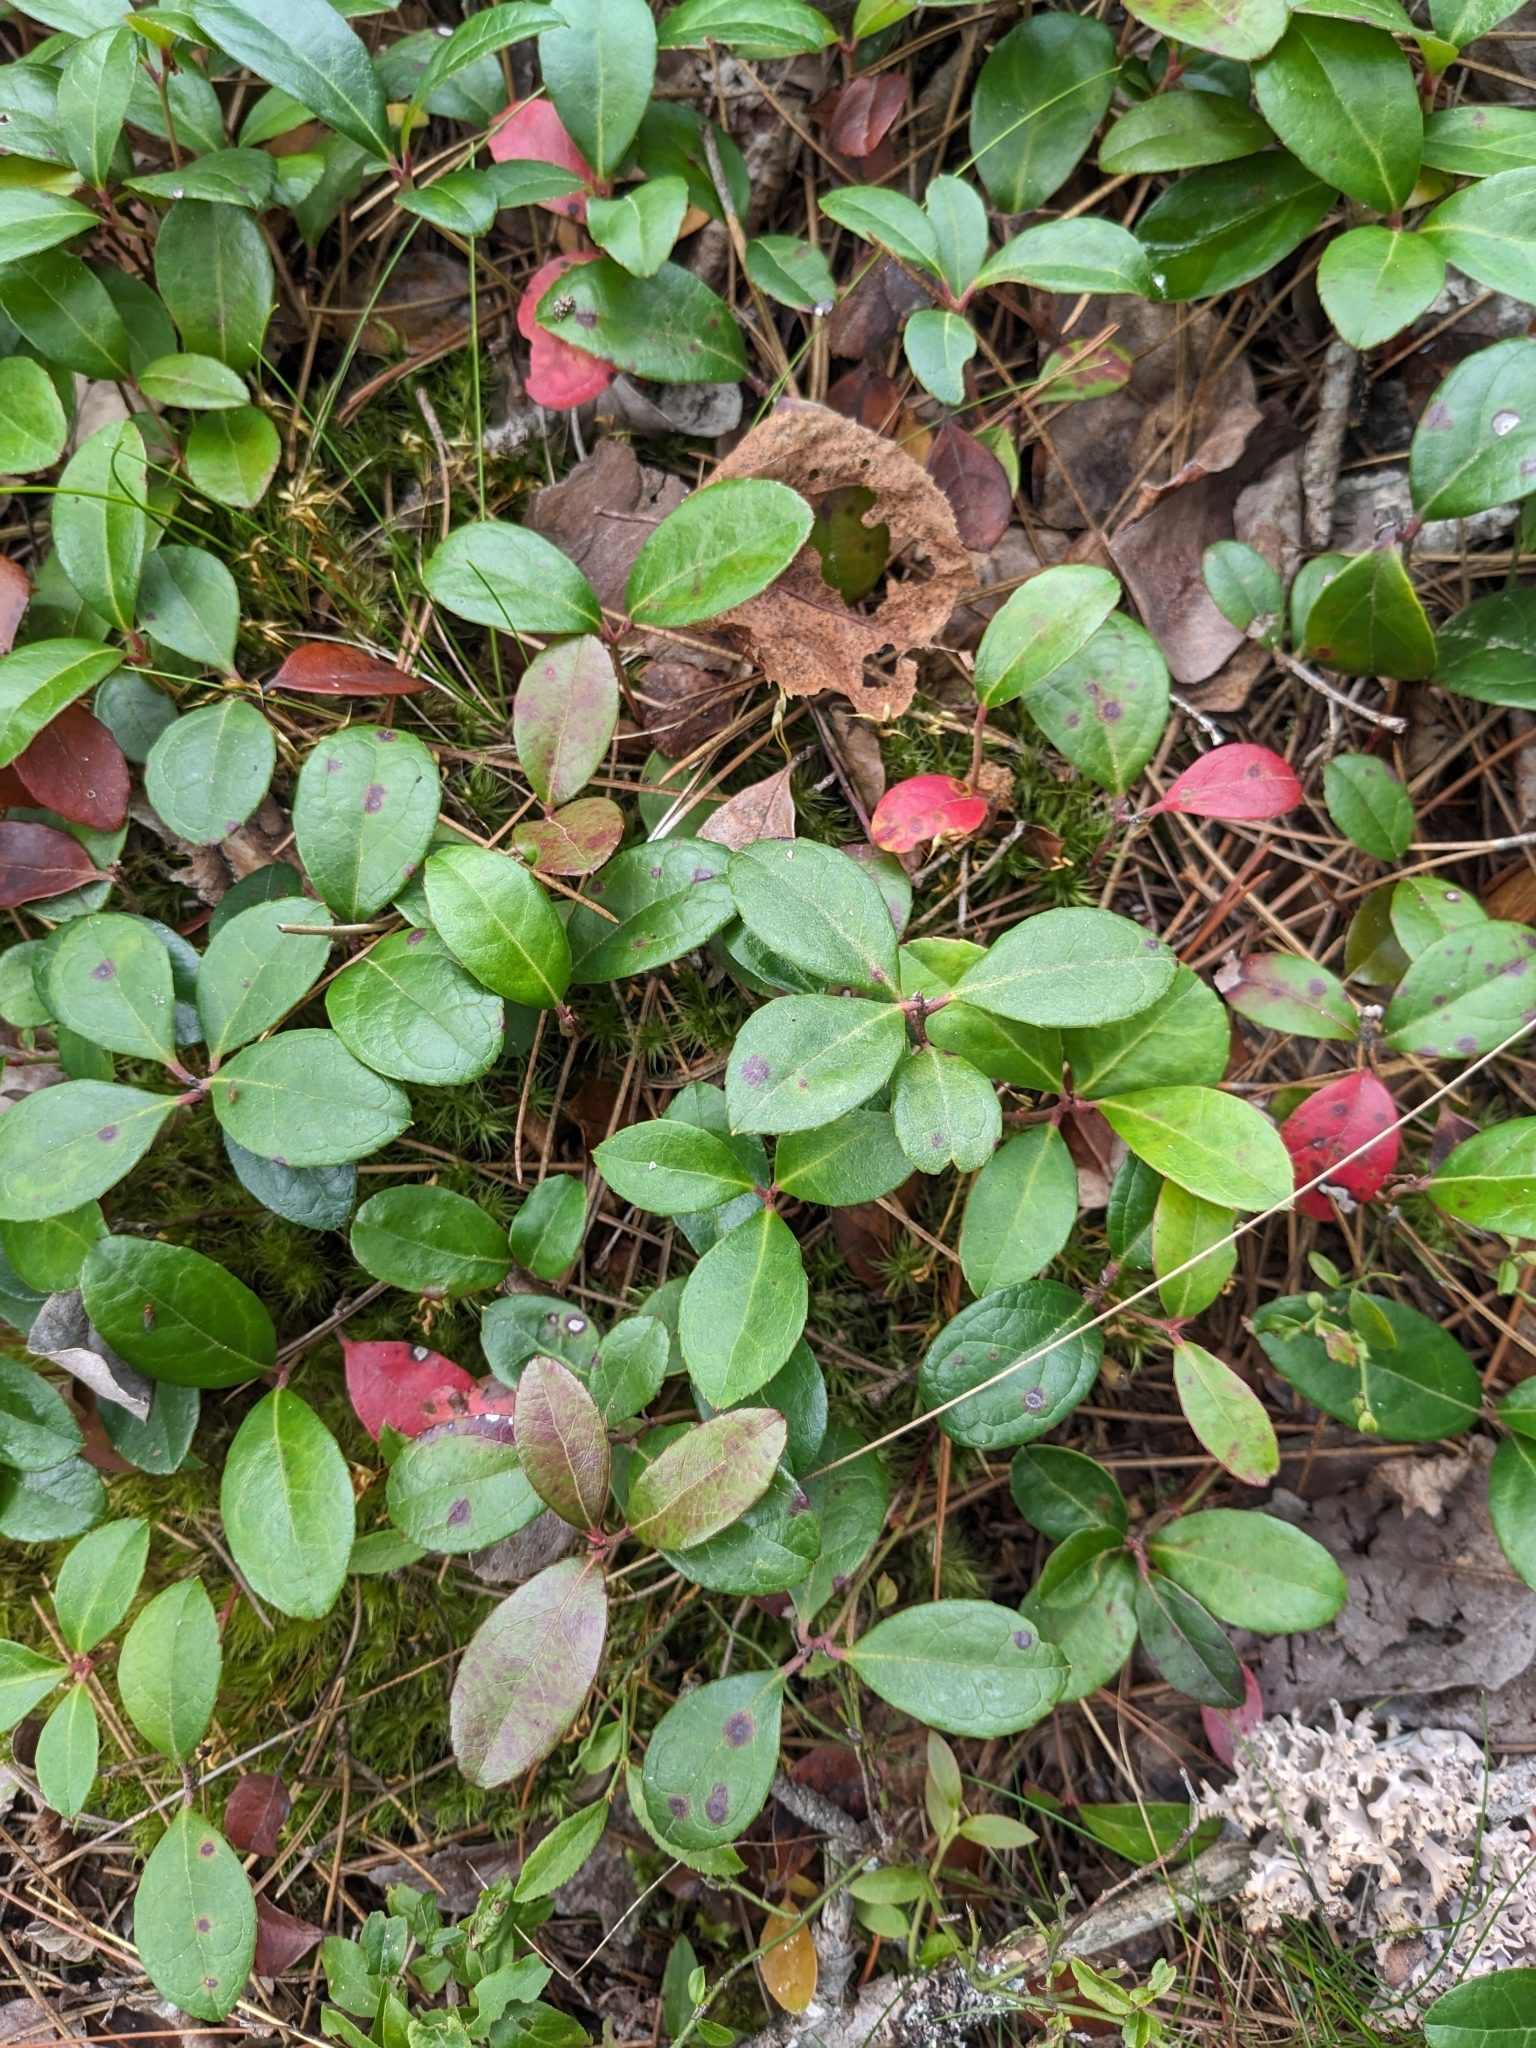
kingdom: Plantae
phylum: Tracheophyta
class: Magnoliopsida
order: Ericales
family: Ericaceae
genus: Gaultheria
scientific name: Gaultheria procumbens
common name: Checkerberry
